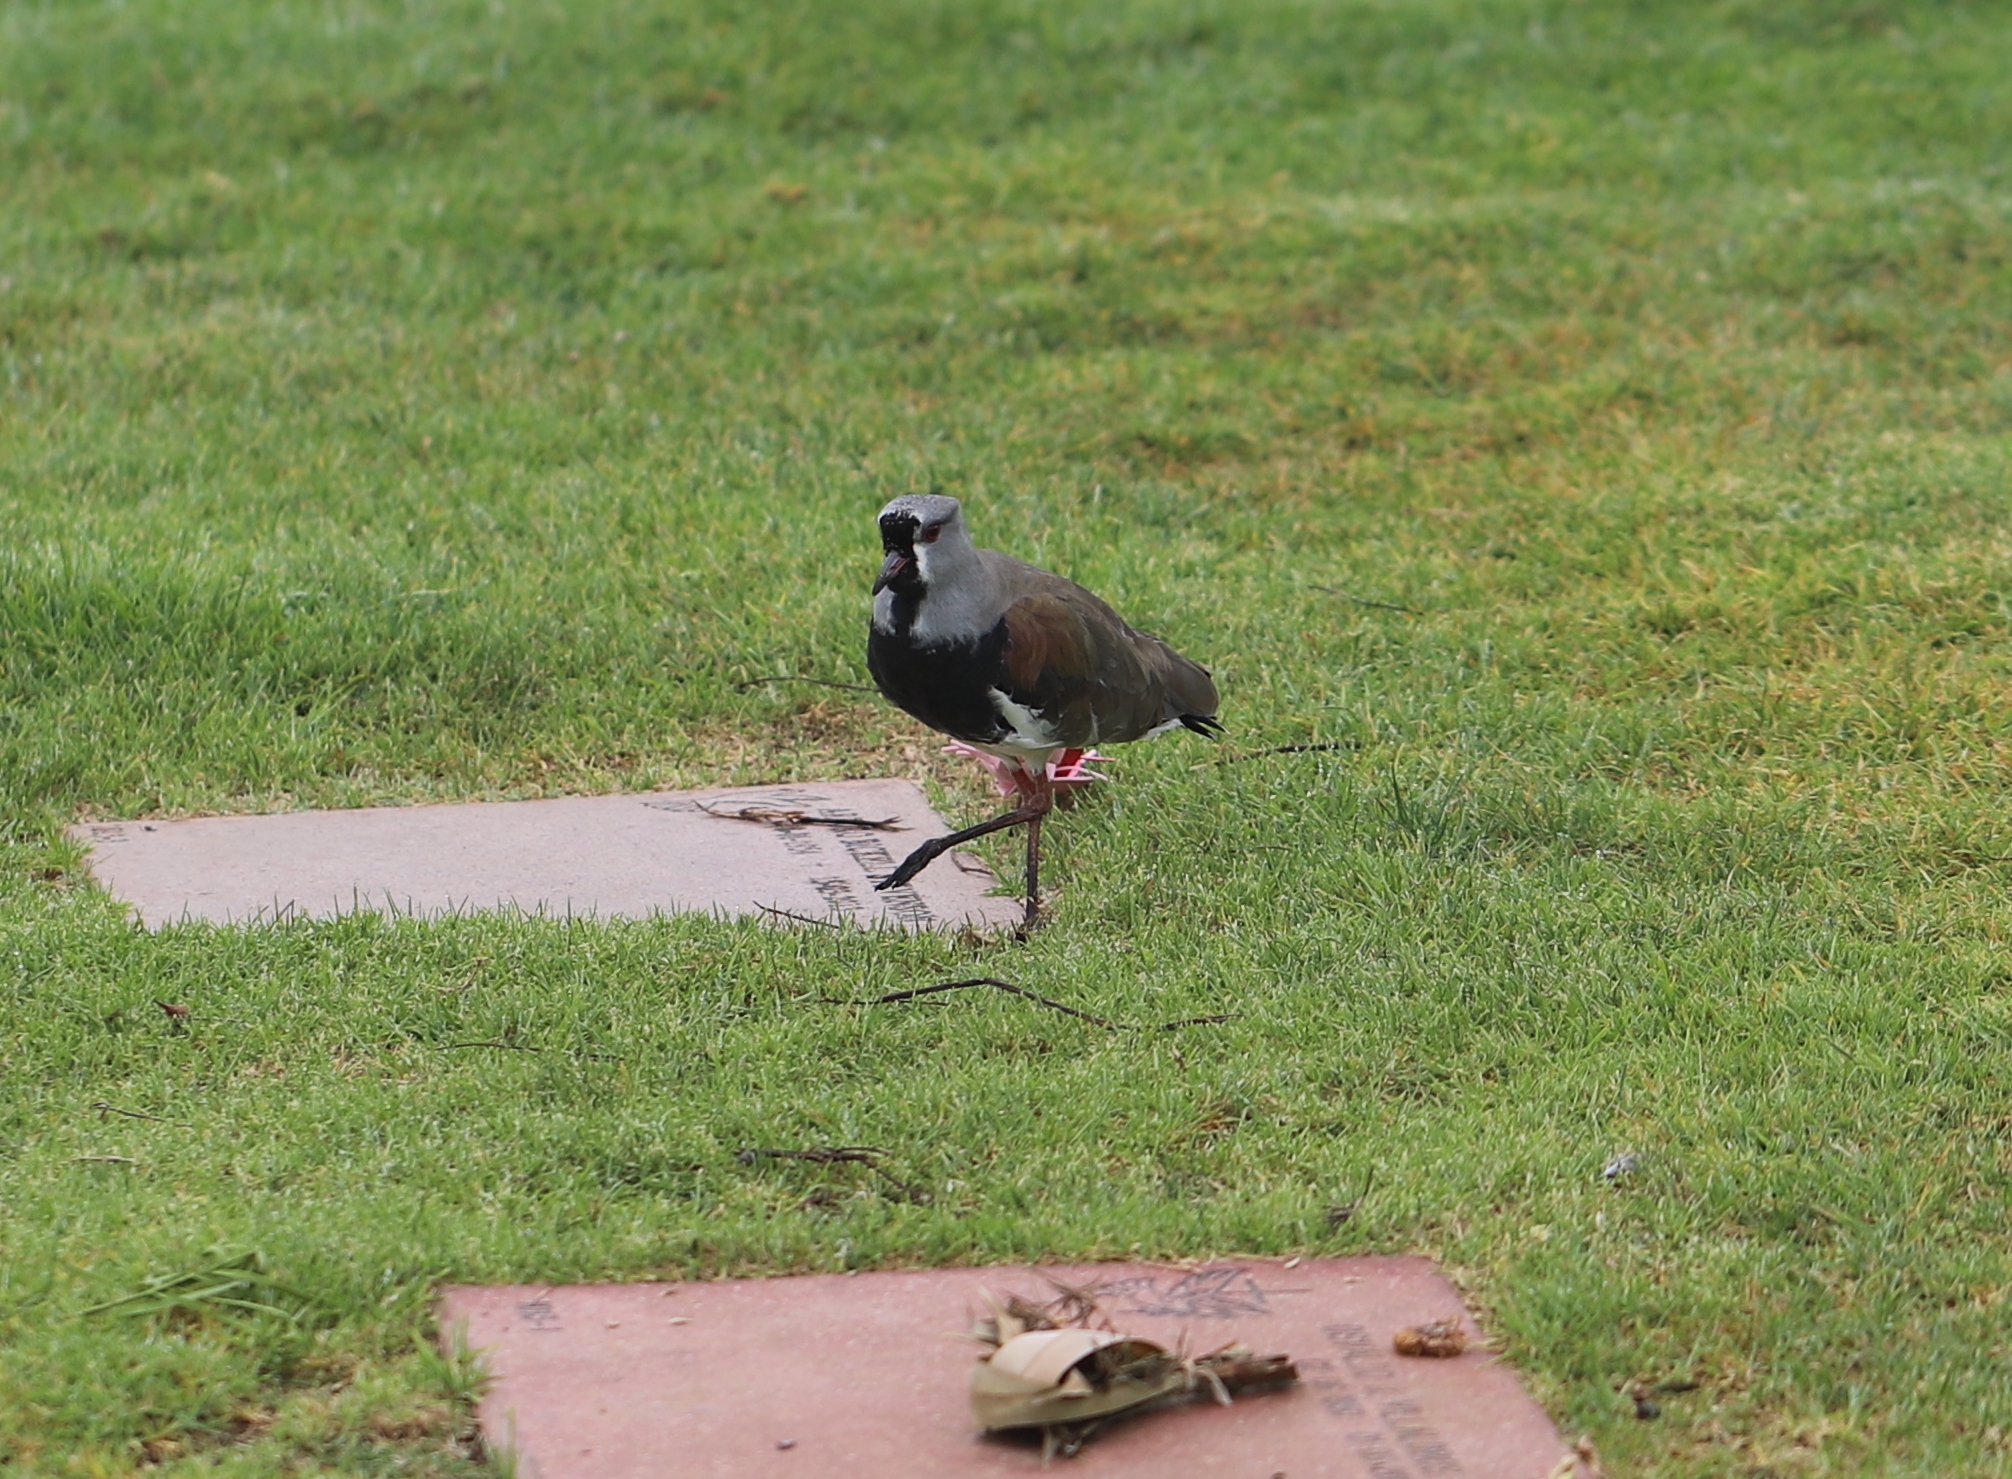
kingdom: Animalia
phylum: Chordata
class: Aves
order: Charadriiformes
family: Charadriidae
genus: Vanellus
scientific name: Vanellus chilensis
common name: Southern lapwing
